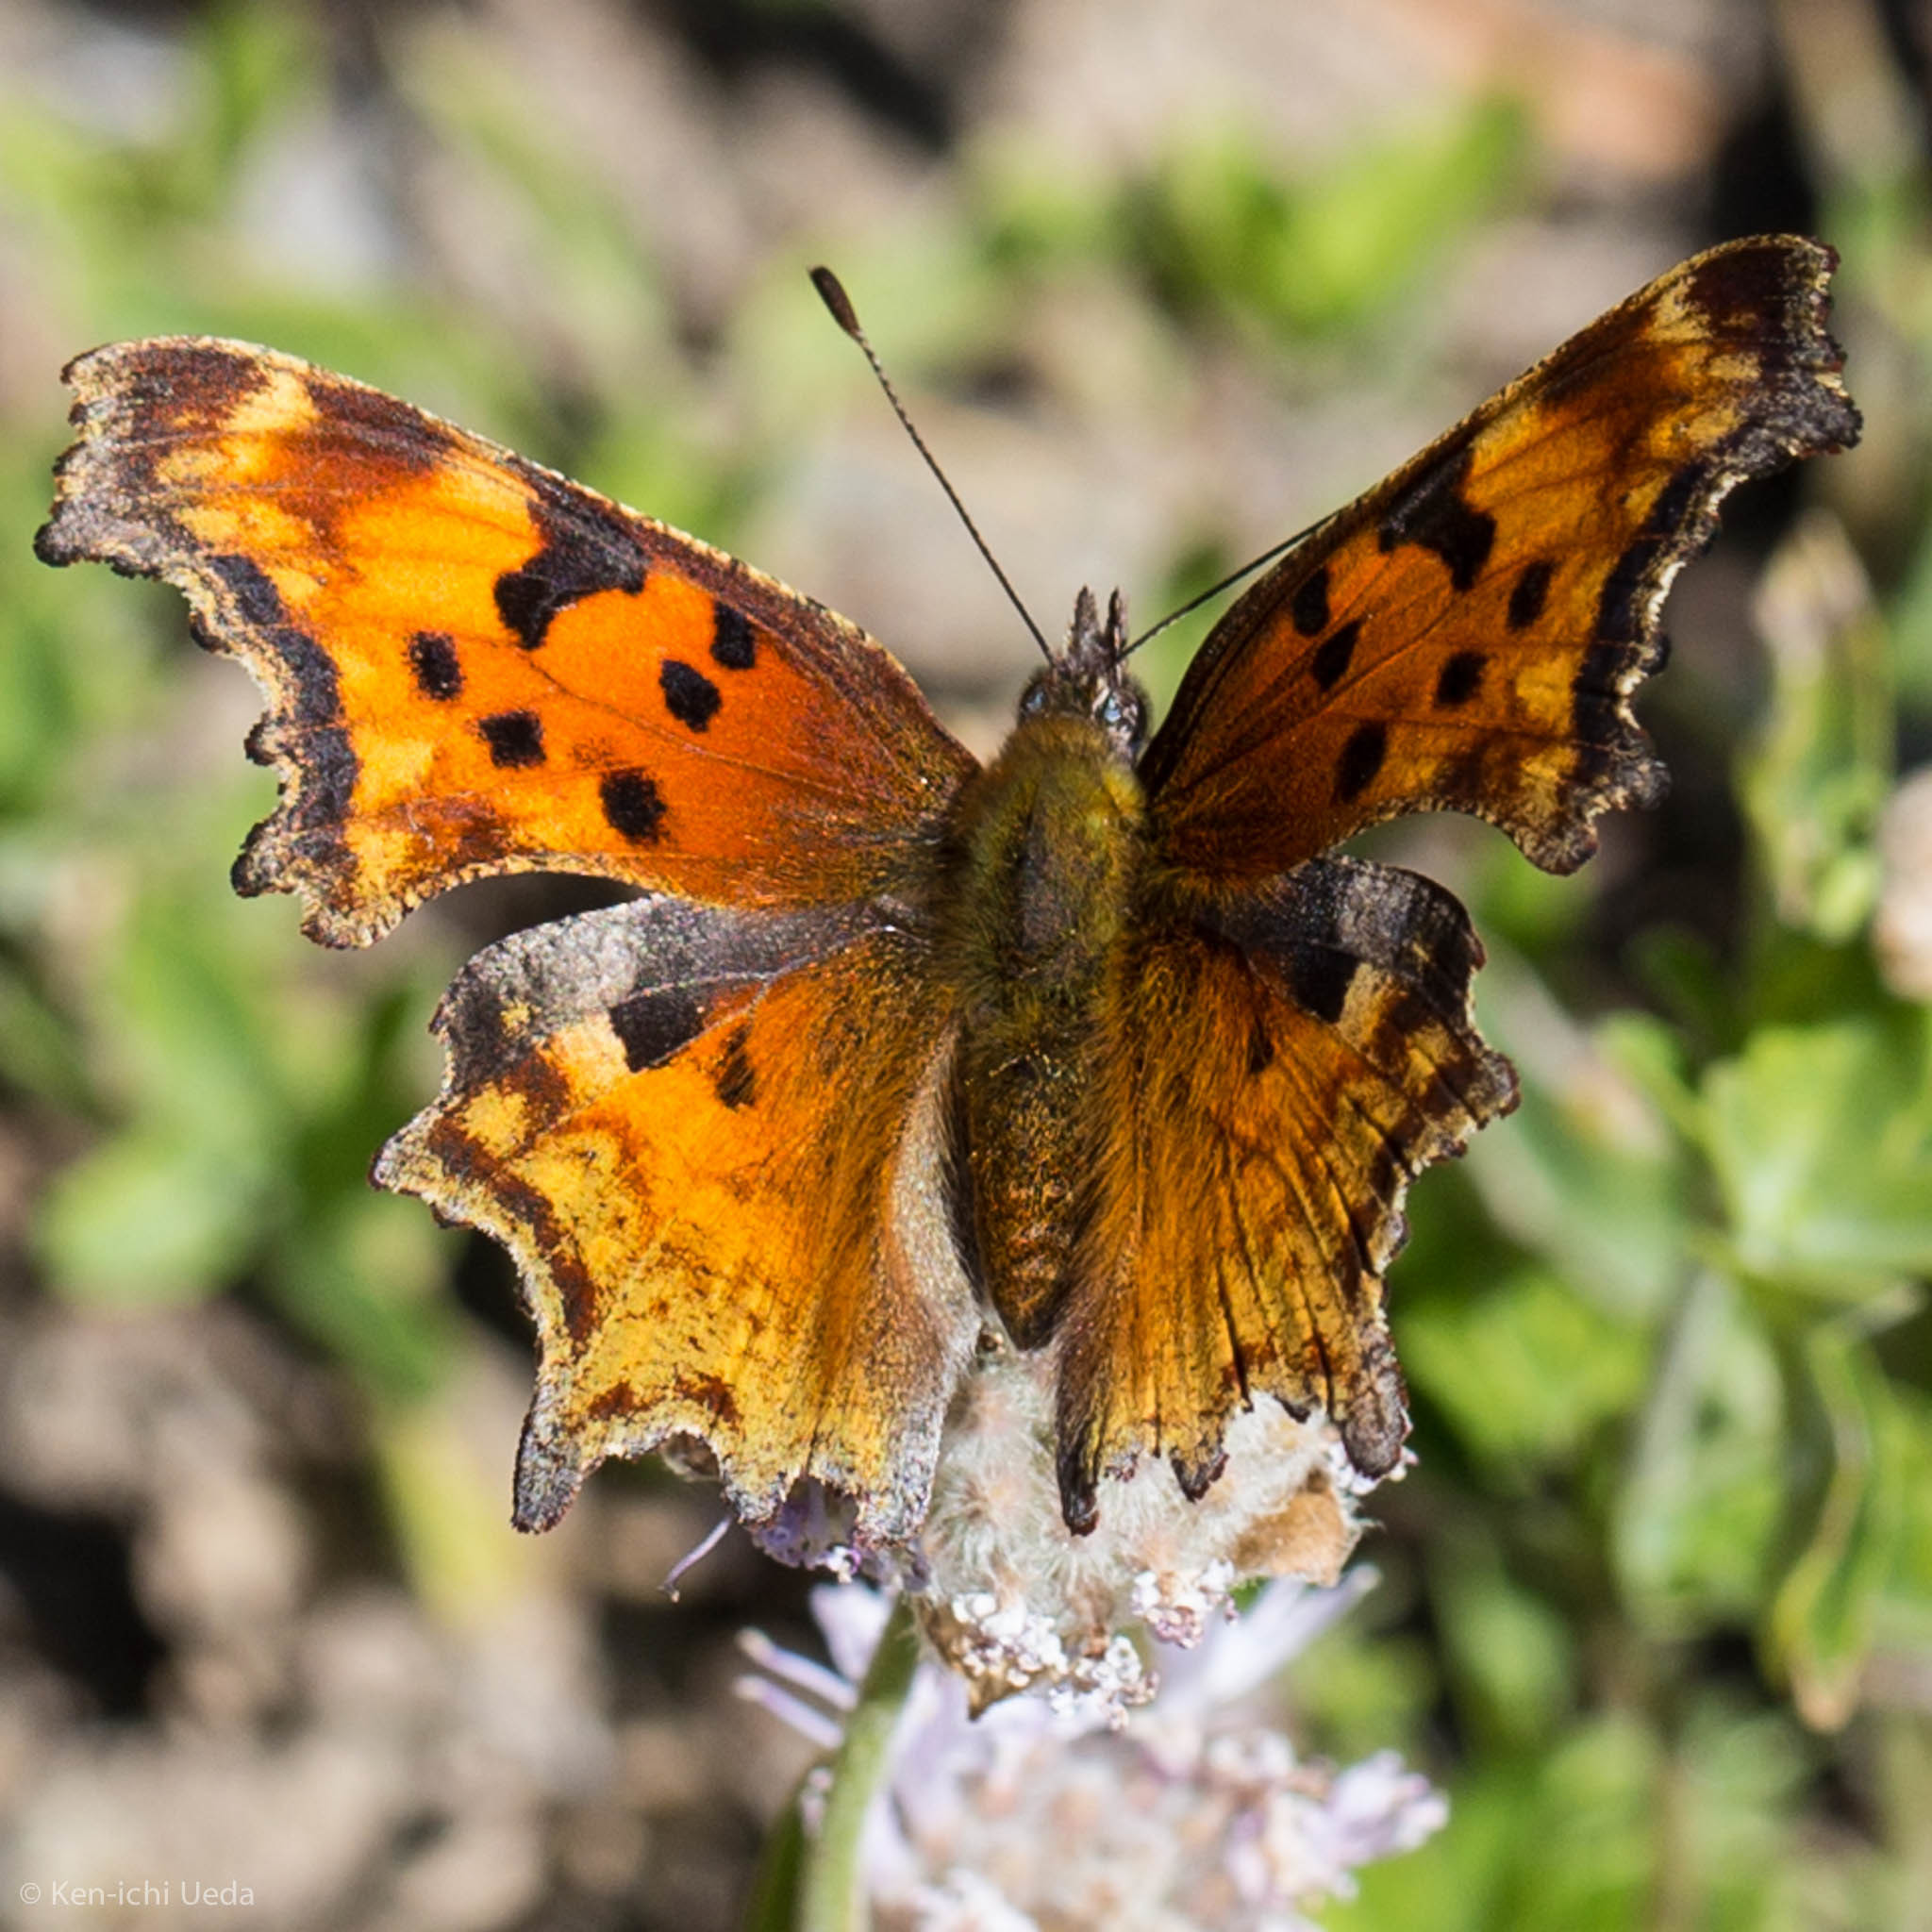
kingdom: Animalia
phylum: Arthropoda
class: Insecta
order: Lepidoptera
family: Nymphalidae
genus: Polygonia
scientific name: Polygonia gracilis
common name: Hoary comma
